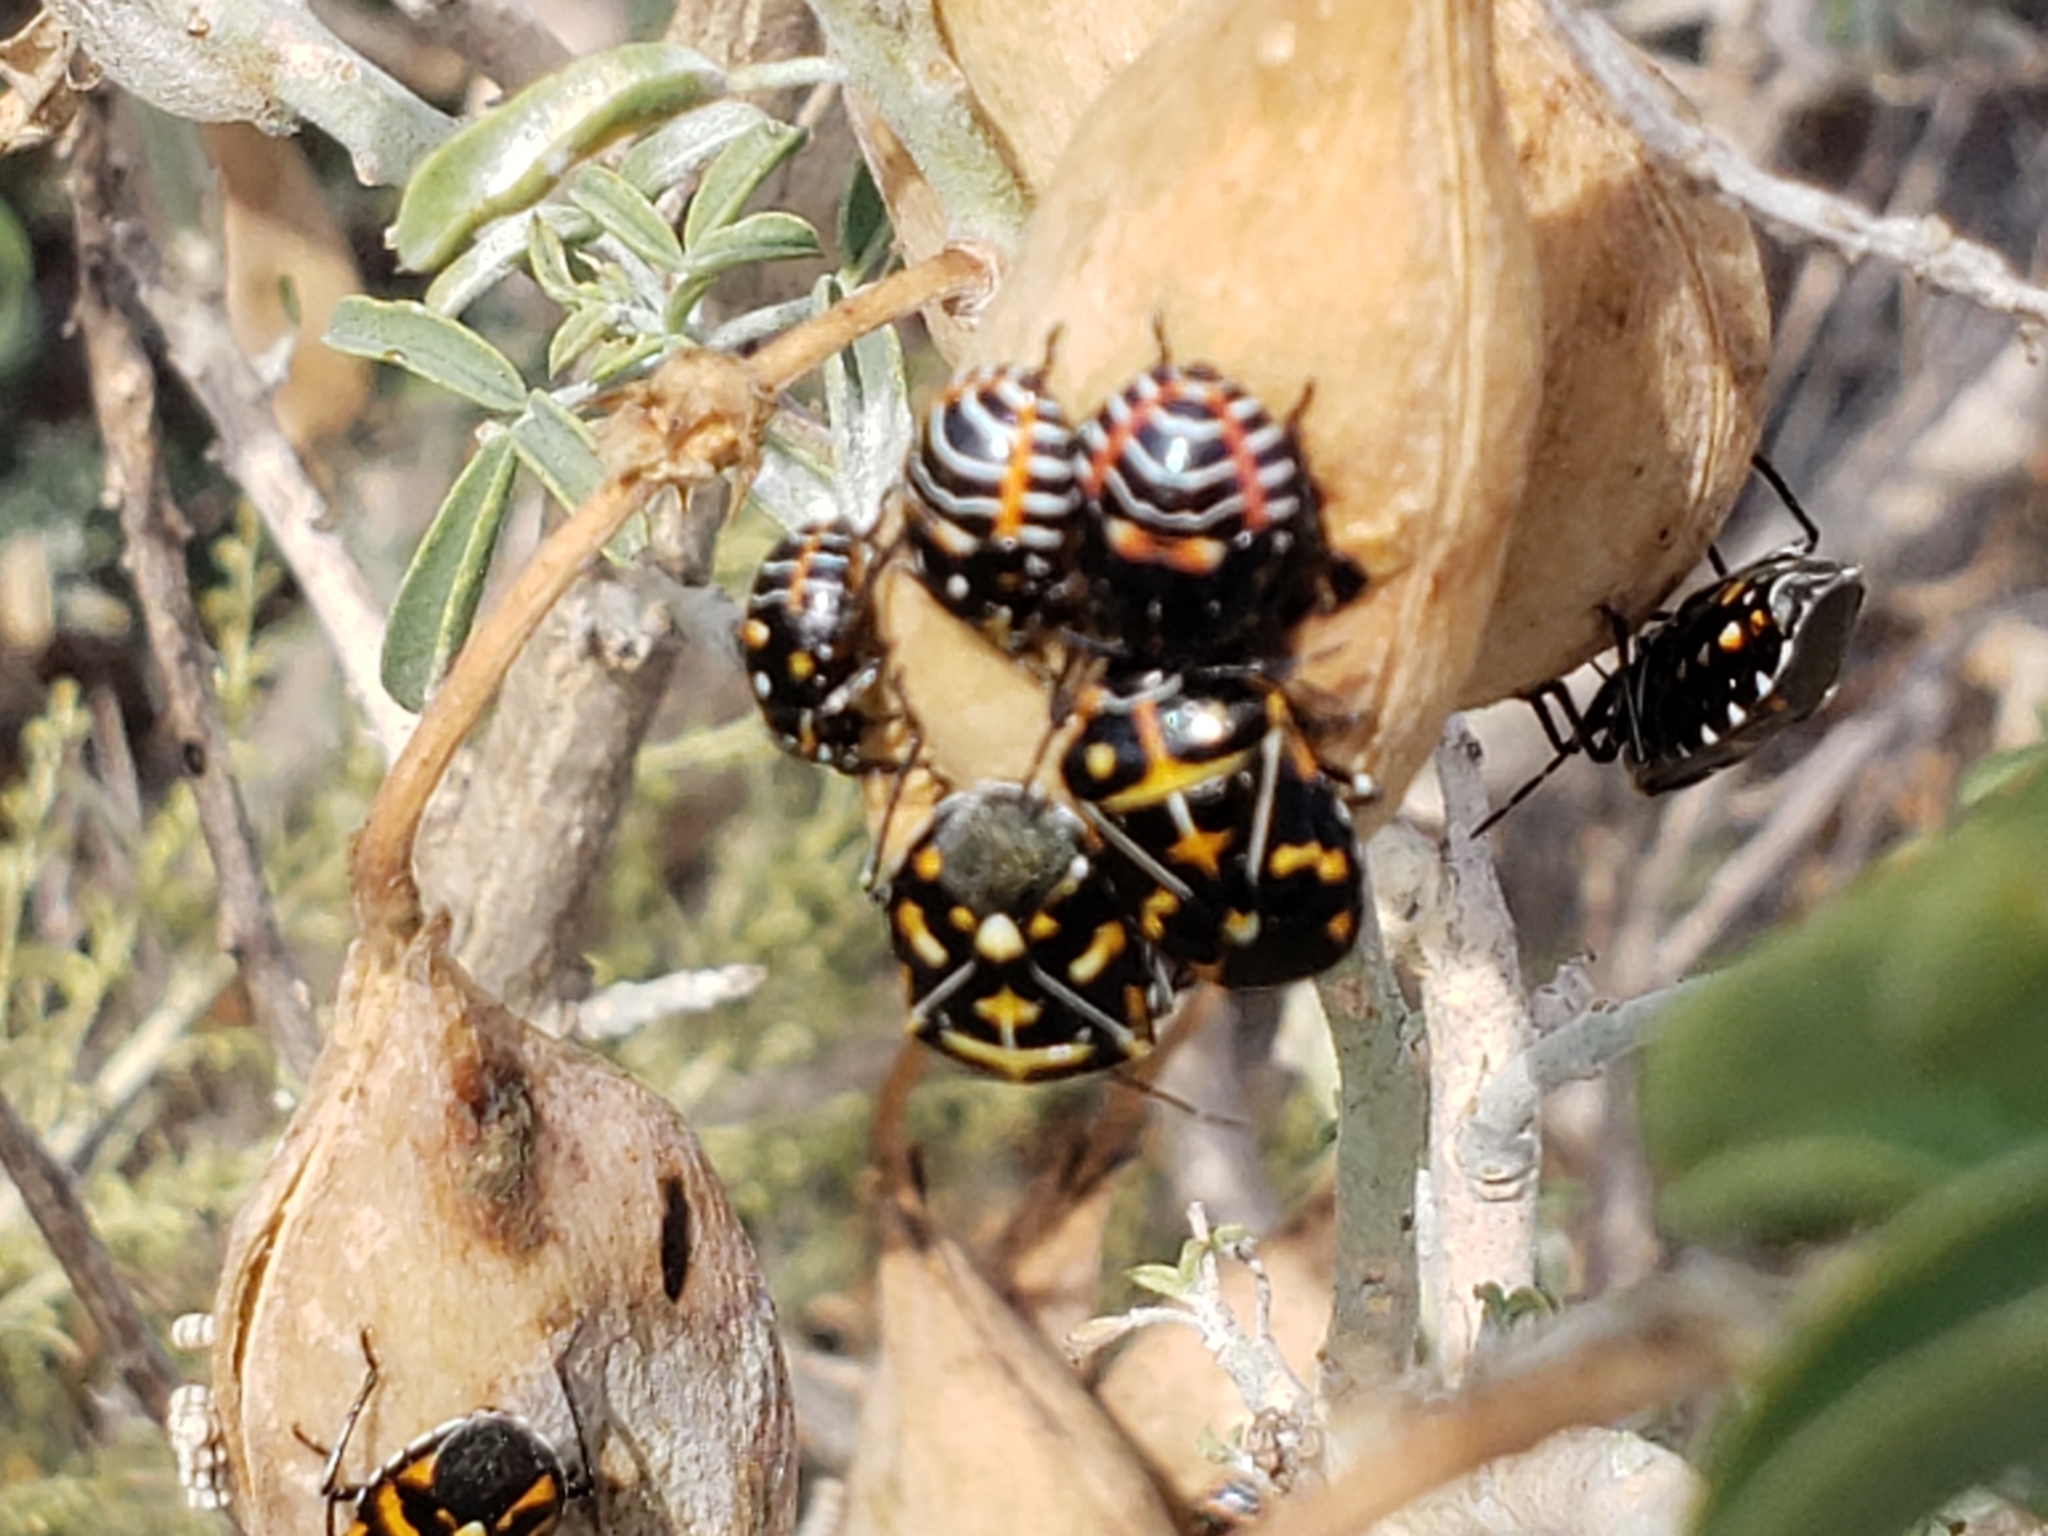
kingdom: Animalia
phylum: Arthropoda
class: Insecta
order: Hemiptera
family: Pentatomidae
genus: Murgantia
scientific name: Murgantia histrionica
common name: Harlequin bug
